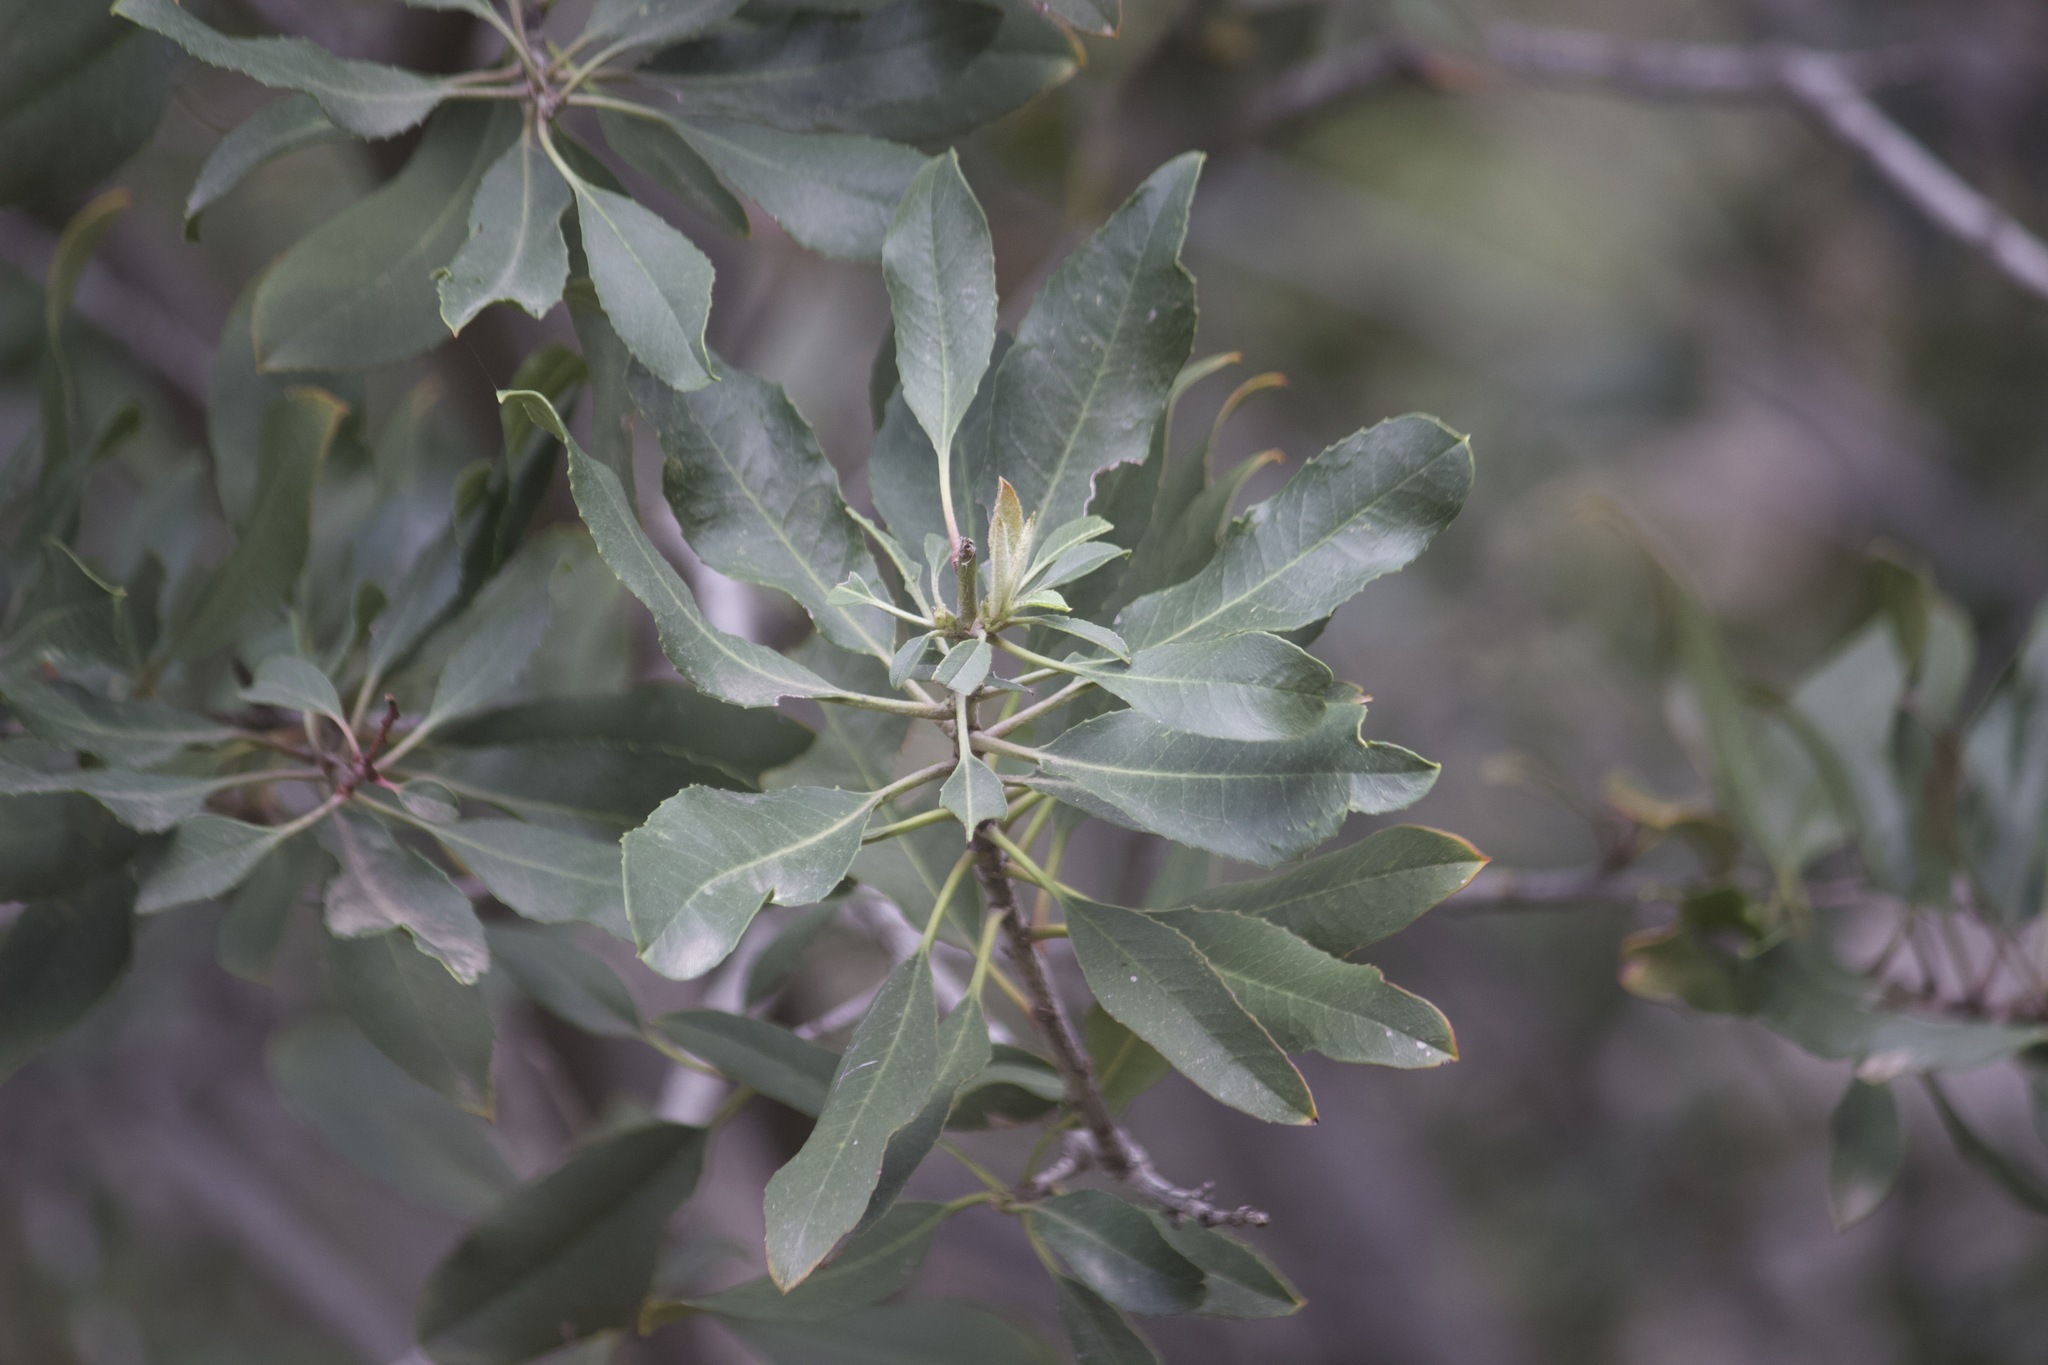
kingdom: Plantae
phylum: Tracheophyta
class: Magnoliopsida
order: Rosales
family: Rosaceae
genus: Heteromeles
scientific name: Heteromeles arbutifolia
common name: California-holly
